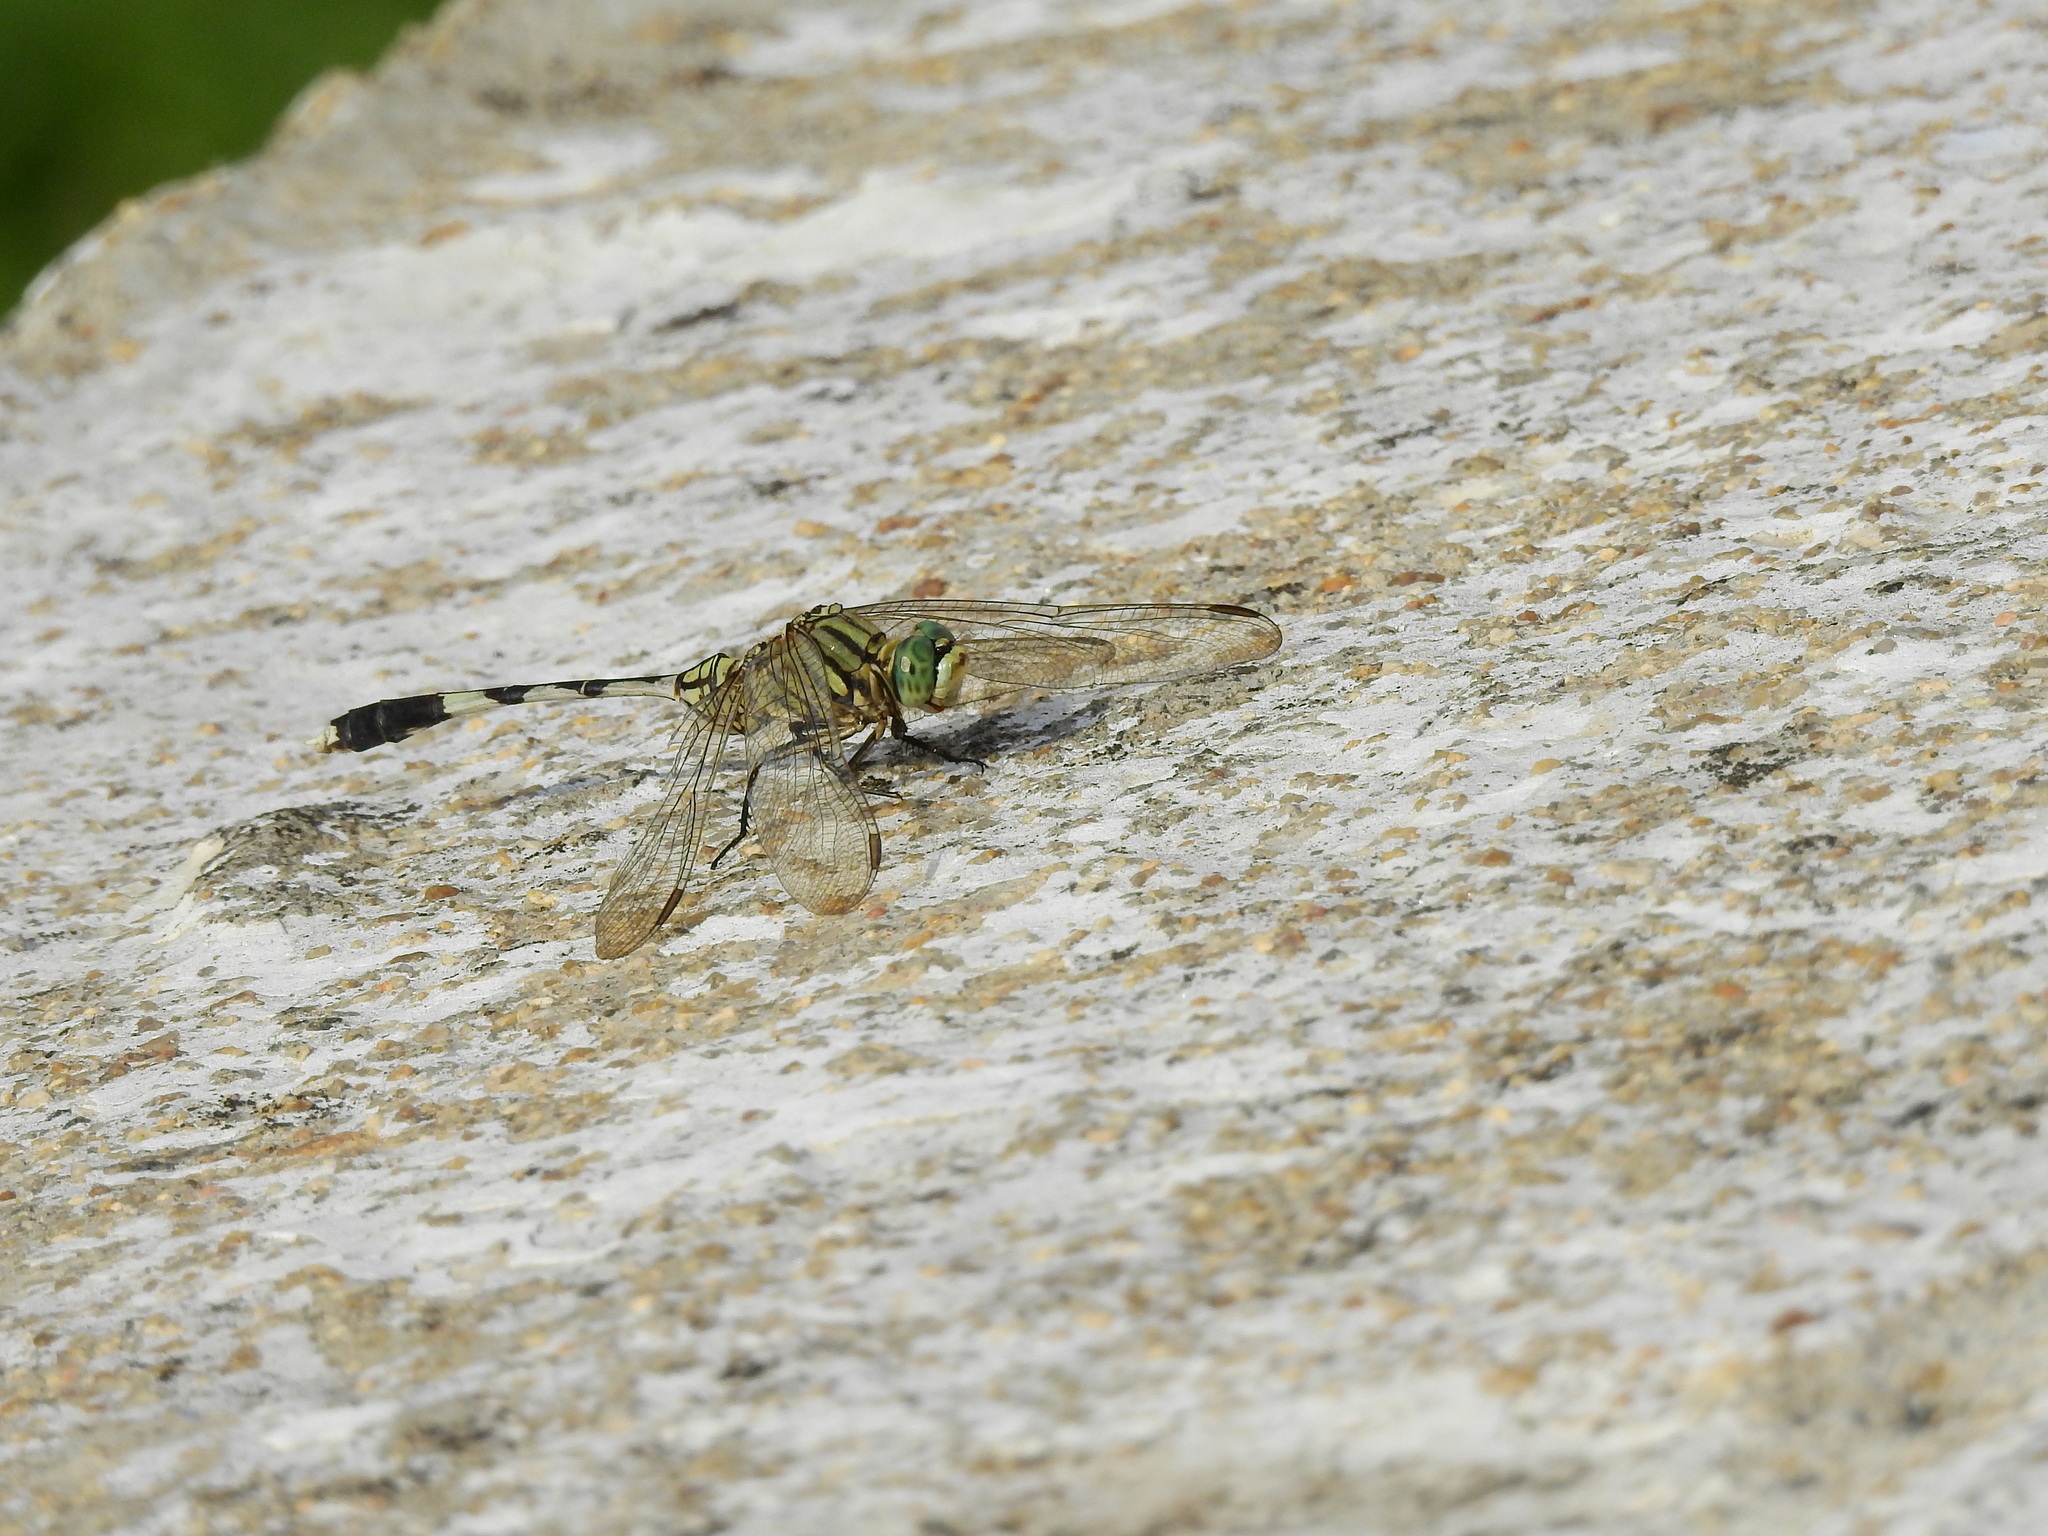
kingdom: Animalia
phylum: Arthropoda
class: Insecta
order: Odonata
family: Libellulidae
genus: Orthetrum
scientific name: Orthetrum sabina
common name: Slender skimmer
